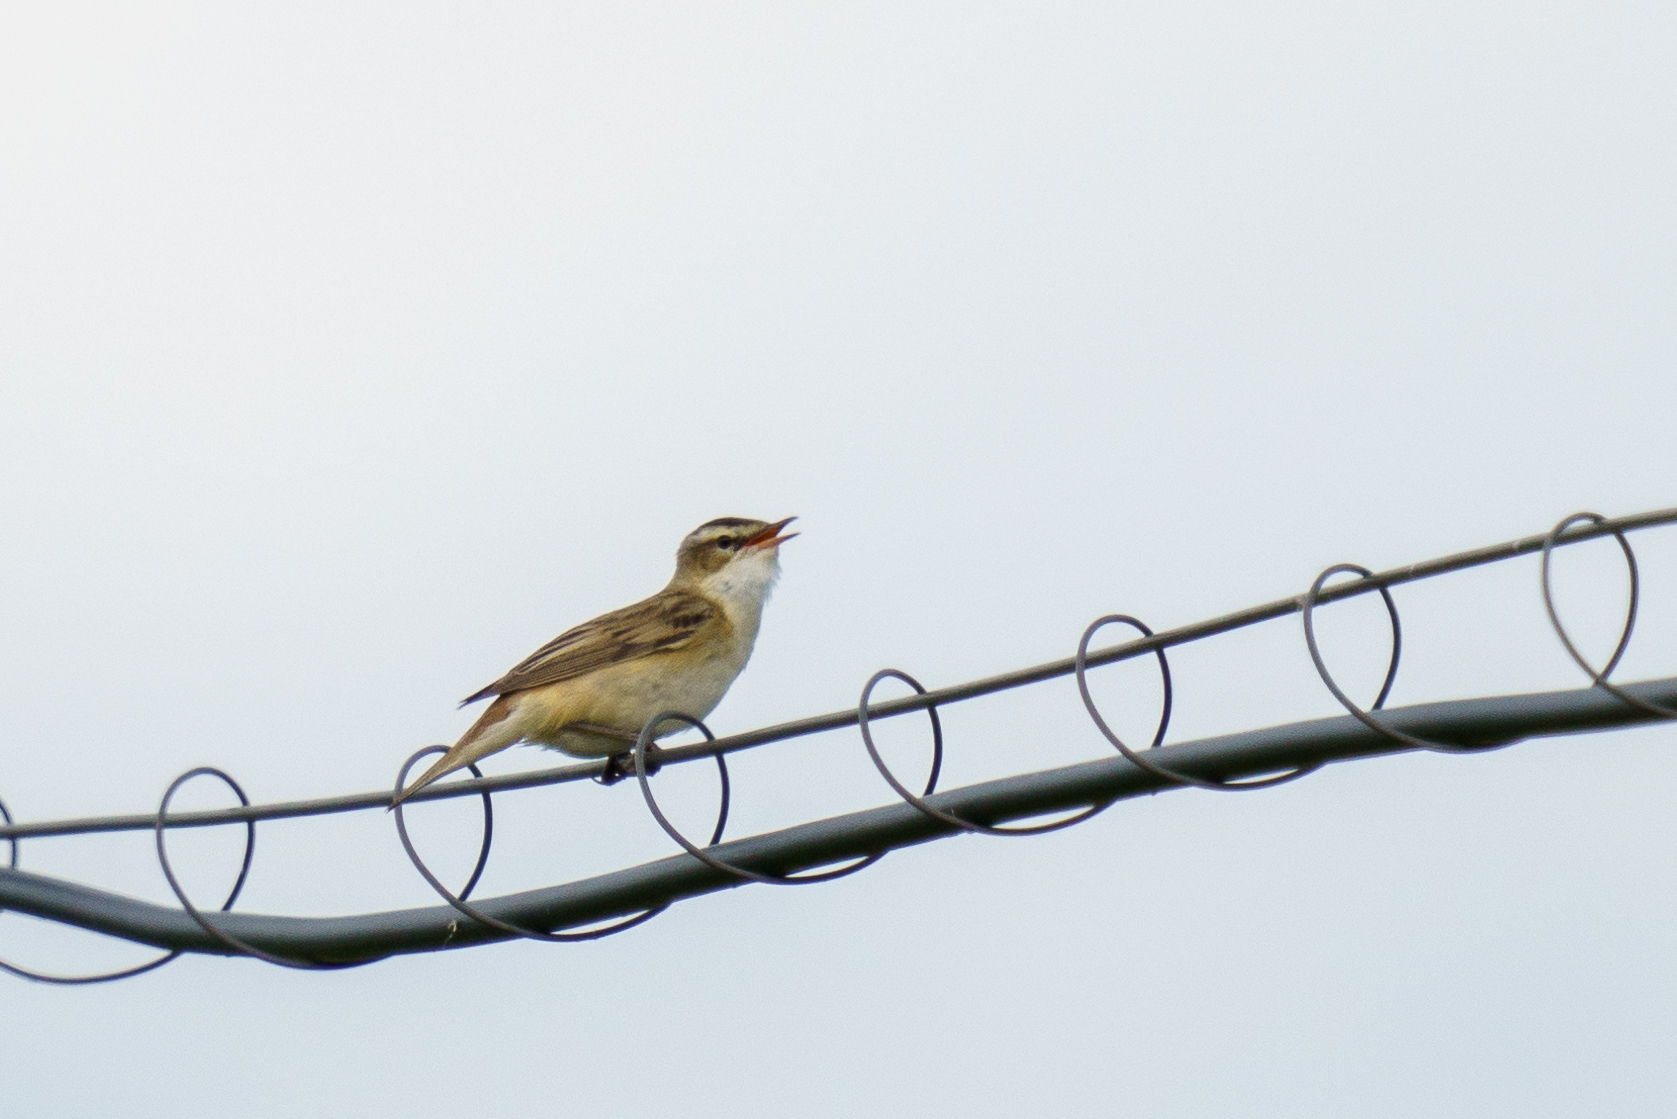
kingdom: Animalia
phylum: Chordata
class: Aves
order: Passeriformes
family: Acrocephalidae
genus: Acrocephalus
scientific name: Acrocephalus schoenobaenus
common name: Sedge warbler
